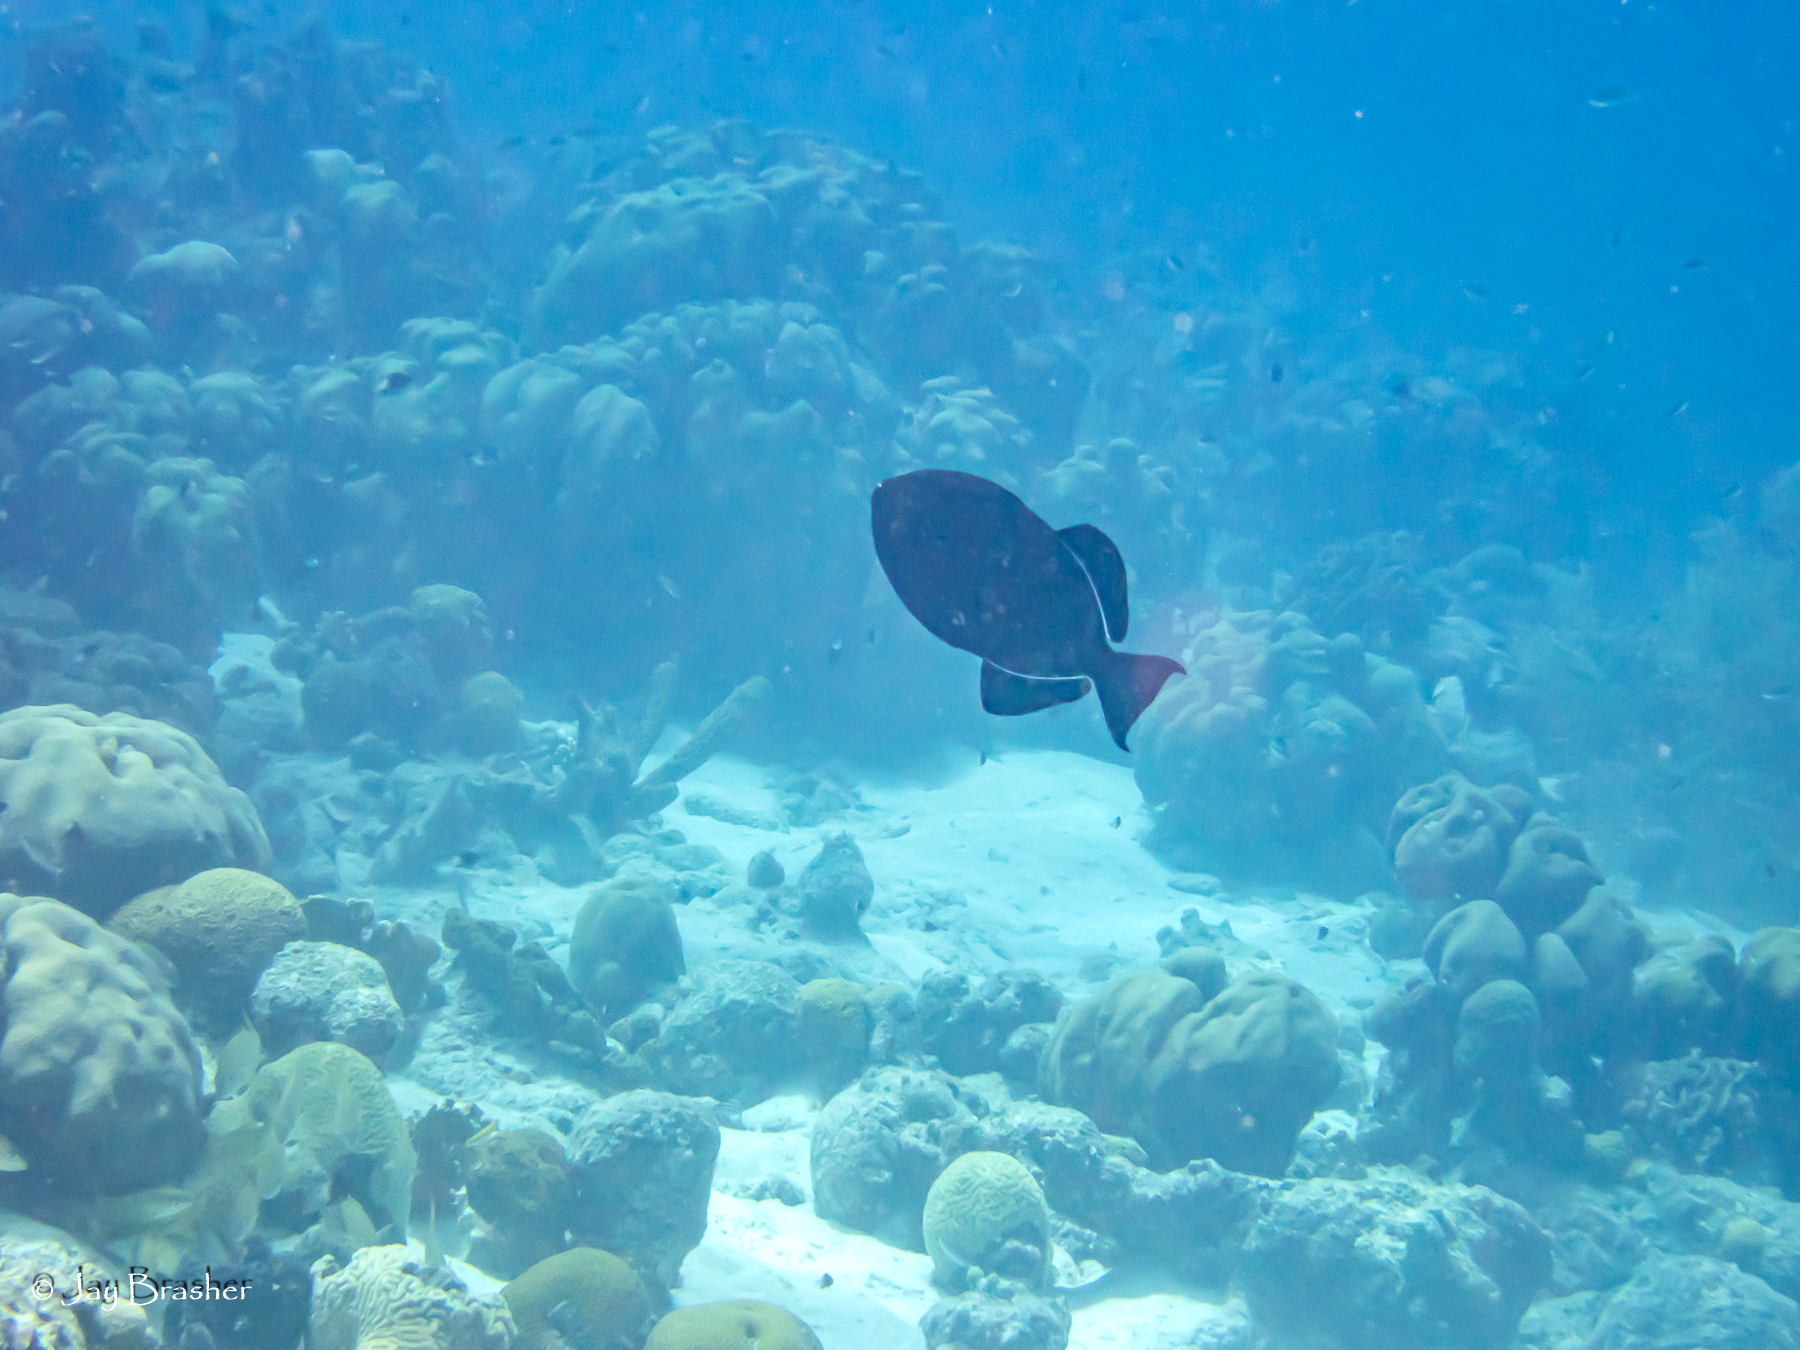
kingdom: Animalia
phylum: Chordata
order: Tetraodontiformes
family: Balistidae
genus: Melichthys
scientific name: Melichthys niger
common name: Black durgon
